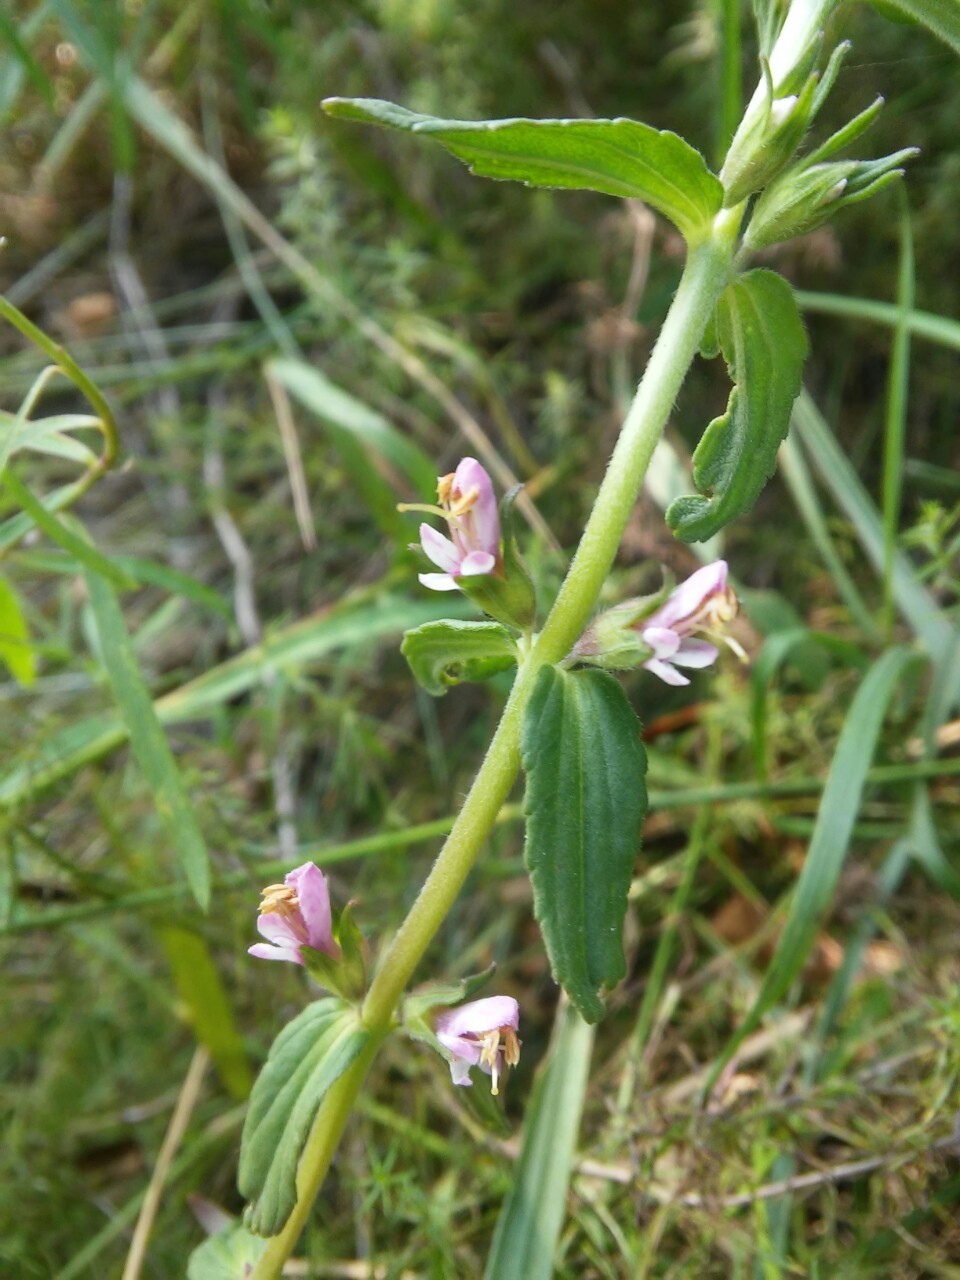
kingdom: Plantae
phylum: Tracheophyta
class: Magnoliopsida
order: Lamiales
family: Orobanchaceae
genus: Odontites
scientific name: Odontites vulgaris
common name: Broomrape
